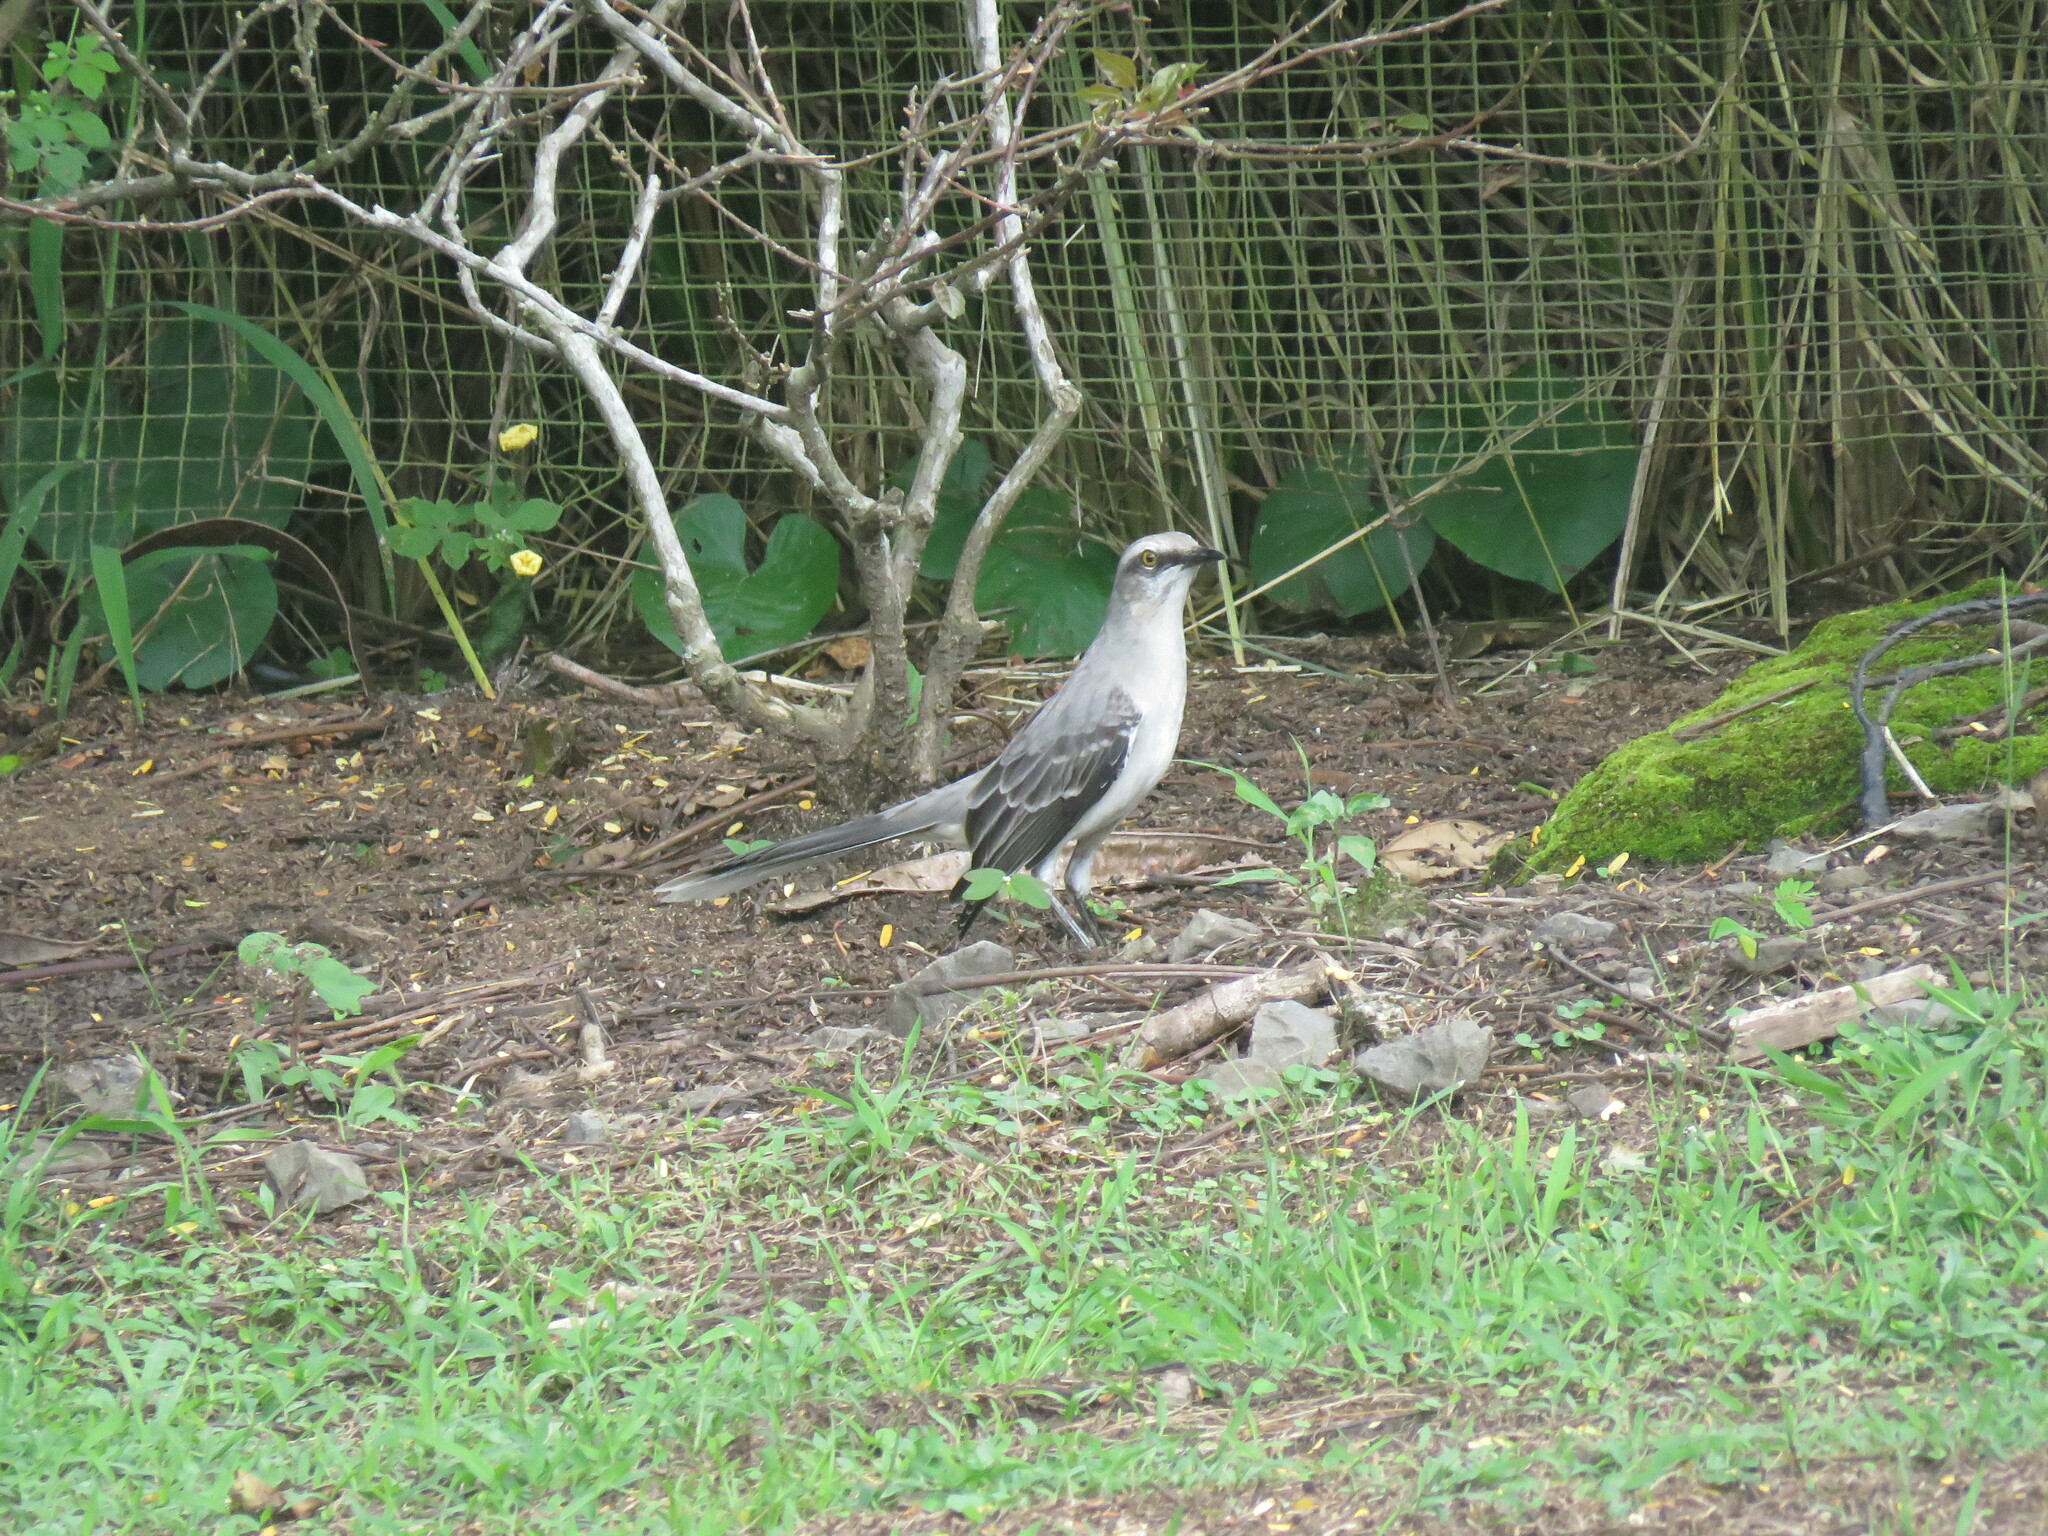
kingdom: Animalia
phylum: Chordata
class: Aves
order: Passeriformes
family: Mimidae
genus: Mimus
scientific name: Mimus gilvus
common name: Tropical mockingbird
